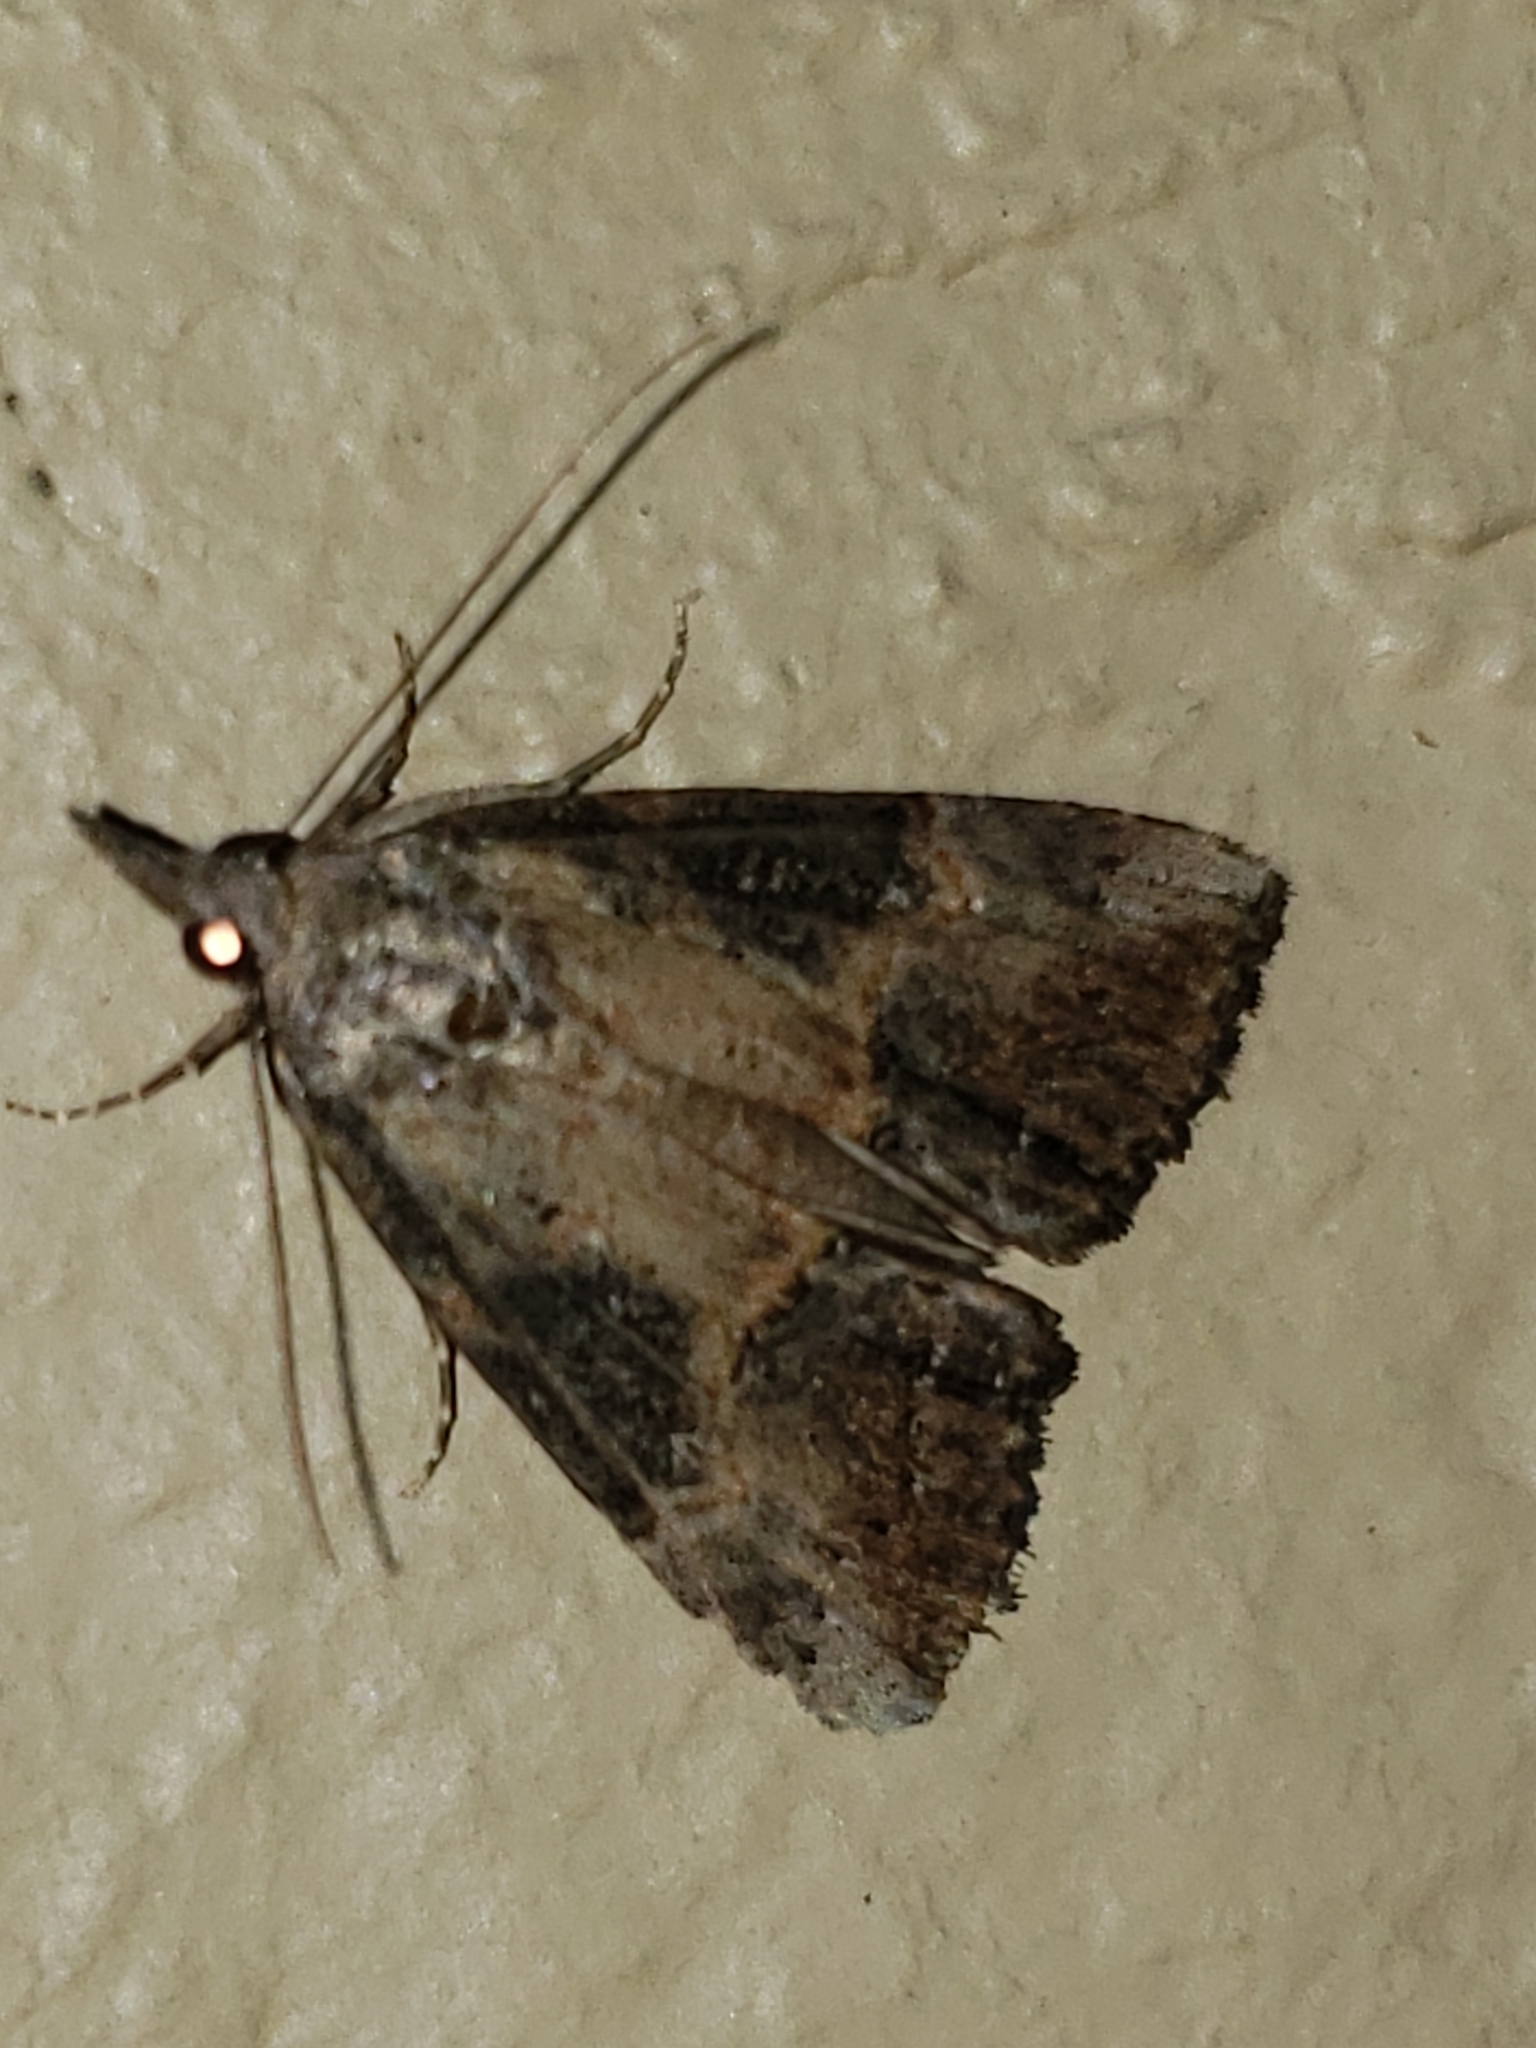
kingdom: Animalia
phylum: Arthropoda
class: Insecta
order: Lepidoptera
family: Erebidae
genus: Hypena
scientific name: Hypena scabra
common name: Green cloverworm
